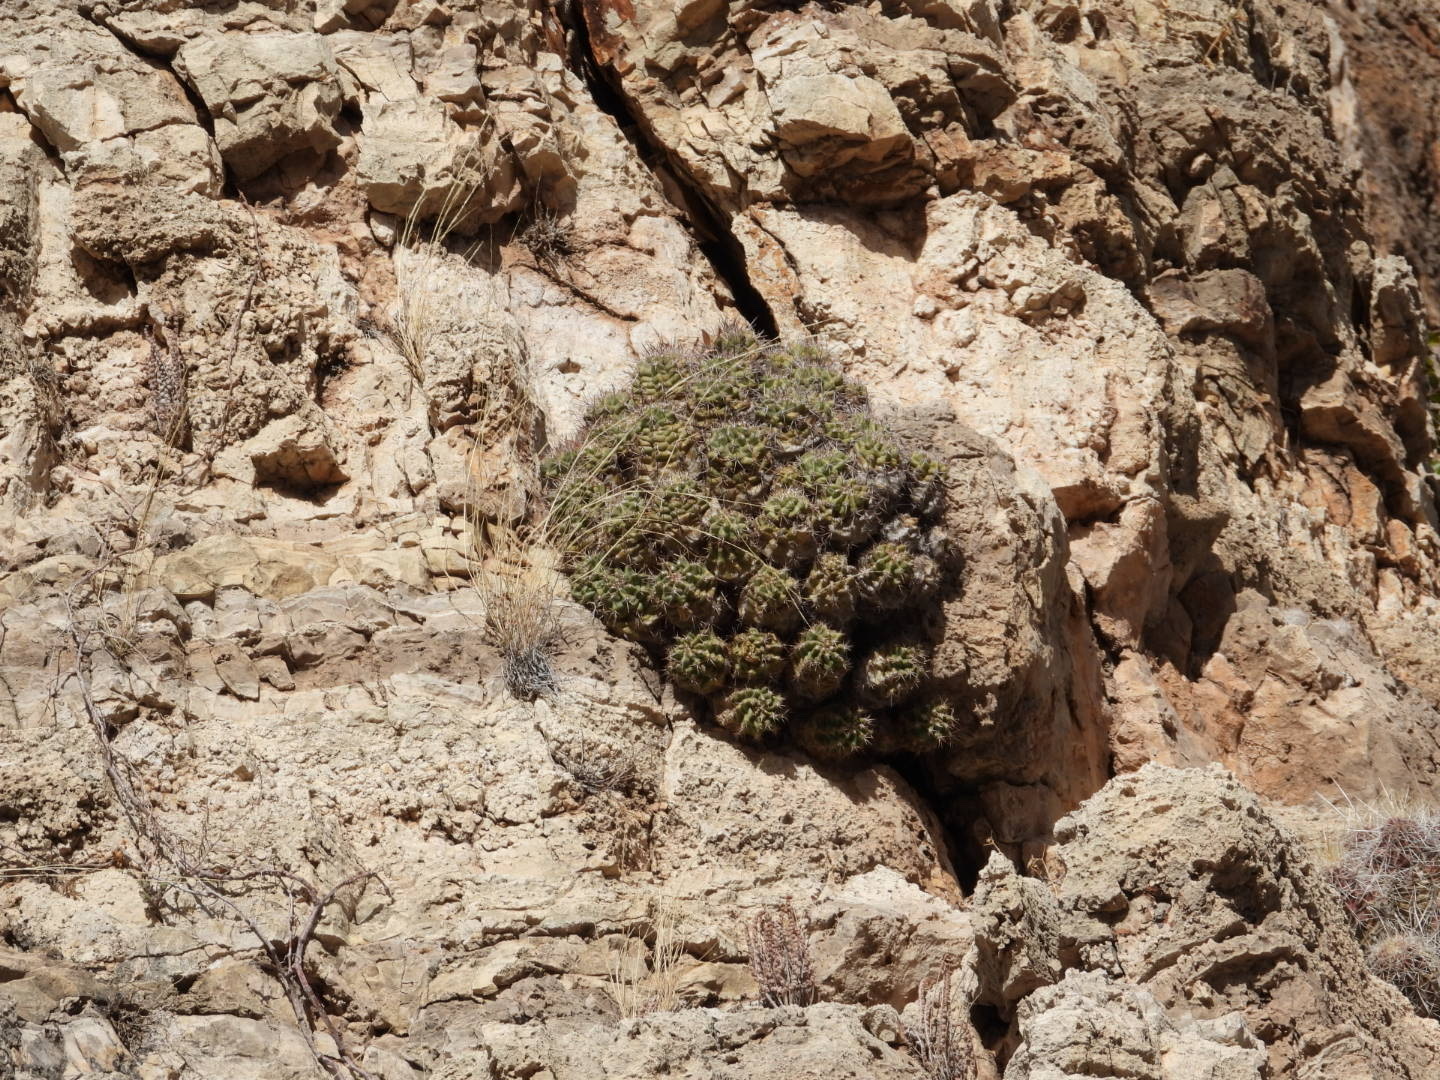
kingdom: Plantae
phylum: Tracheophyta
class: Magnoliopsida
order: Caryophyllales
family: Cactaceae
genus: Echinocereus
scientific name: Echinocereus coccineus
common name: Scarlet hedgehog cactus
